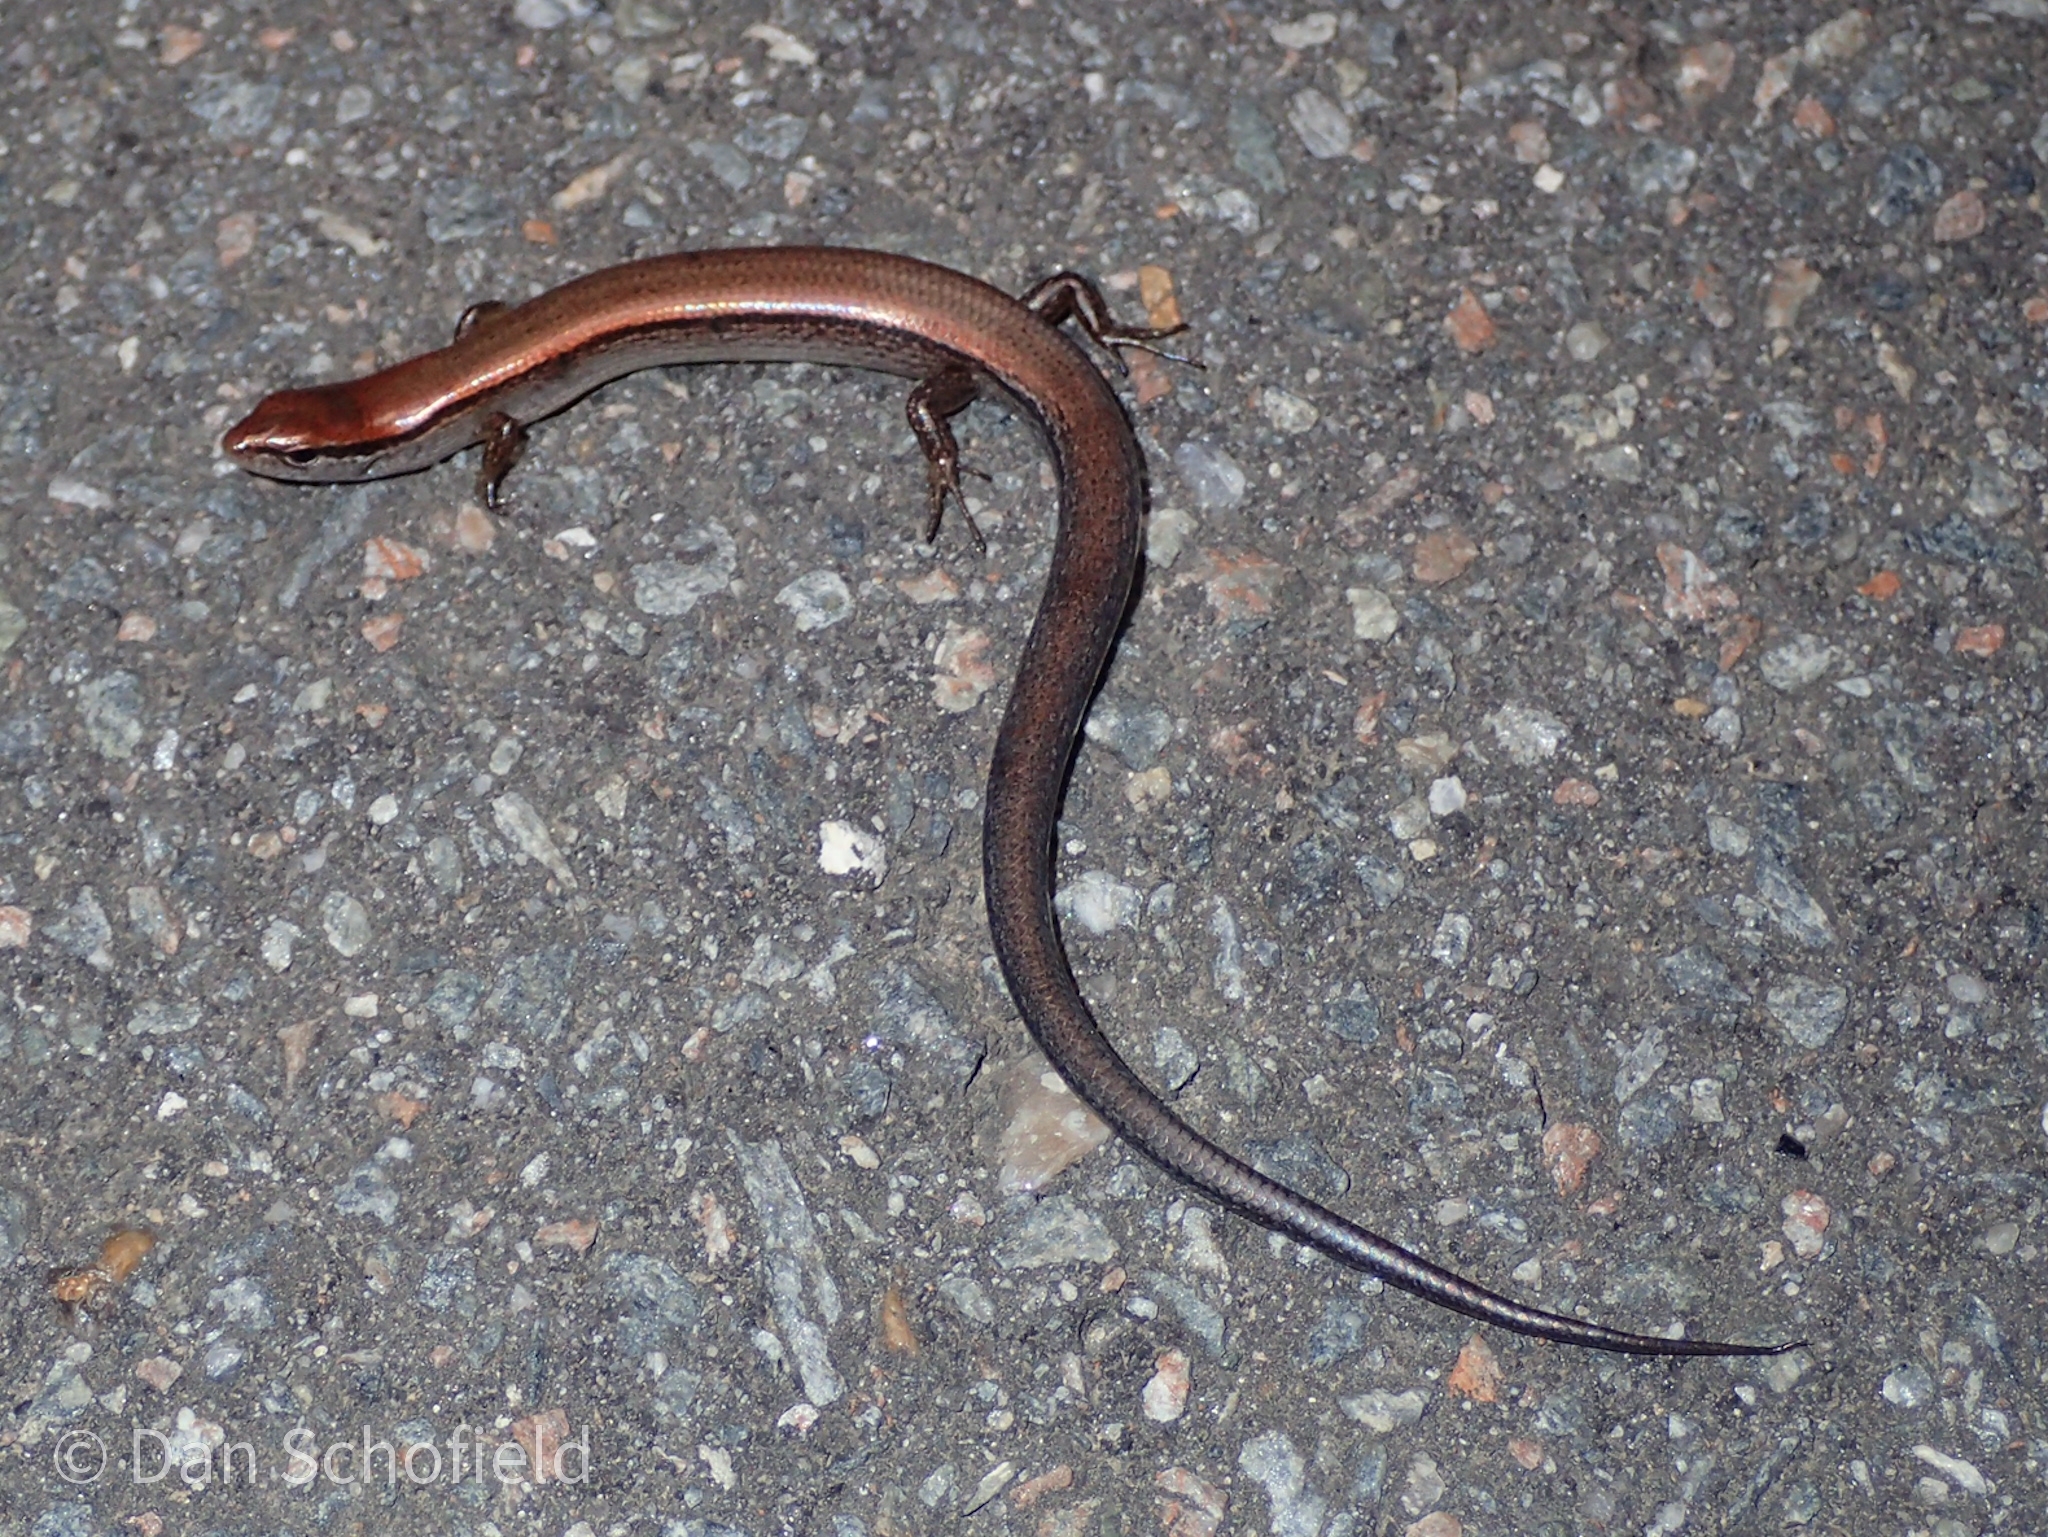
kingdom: Animalia
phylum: Chordata
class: Squamata
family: Scincidae
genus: Scincella
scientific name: Scincella lateralis
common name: Ground skink
